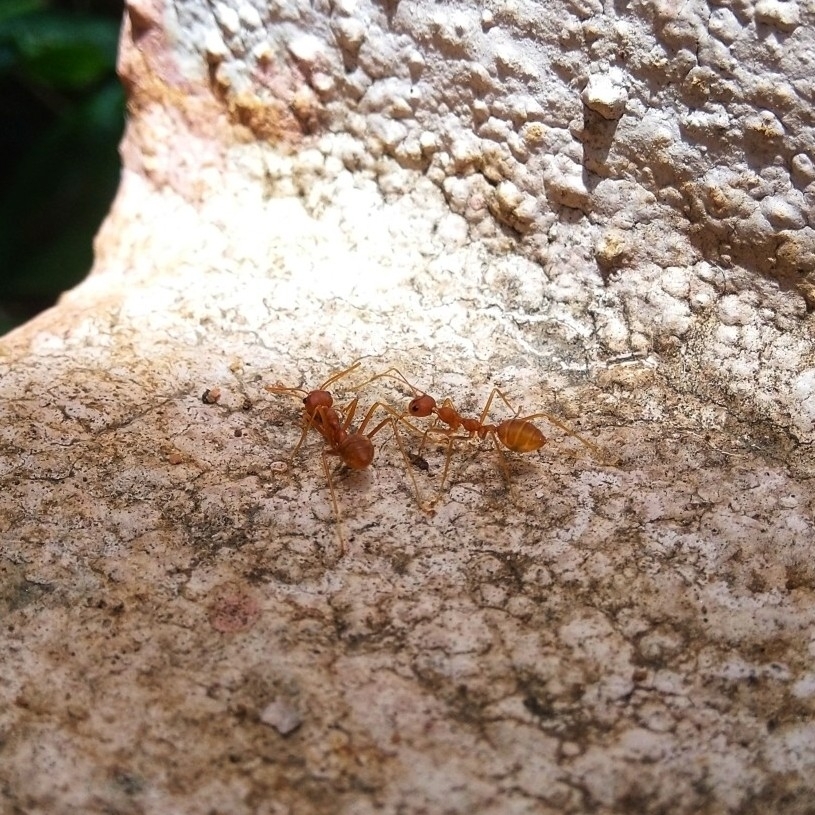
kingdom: Animalia
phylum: Arthropoda
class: Insecta
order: Hymenoptera
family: Formicidae
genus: Oecophylla
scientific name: Oecophylla smaragdina
